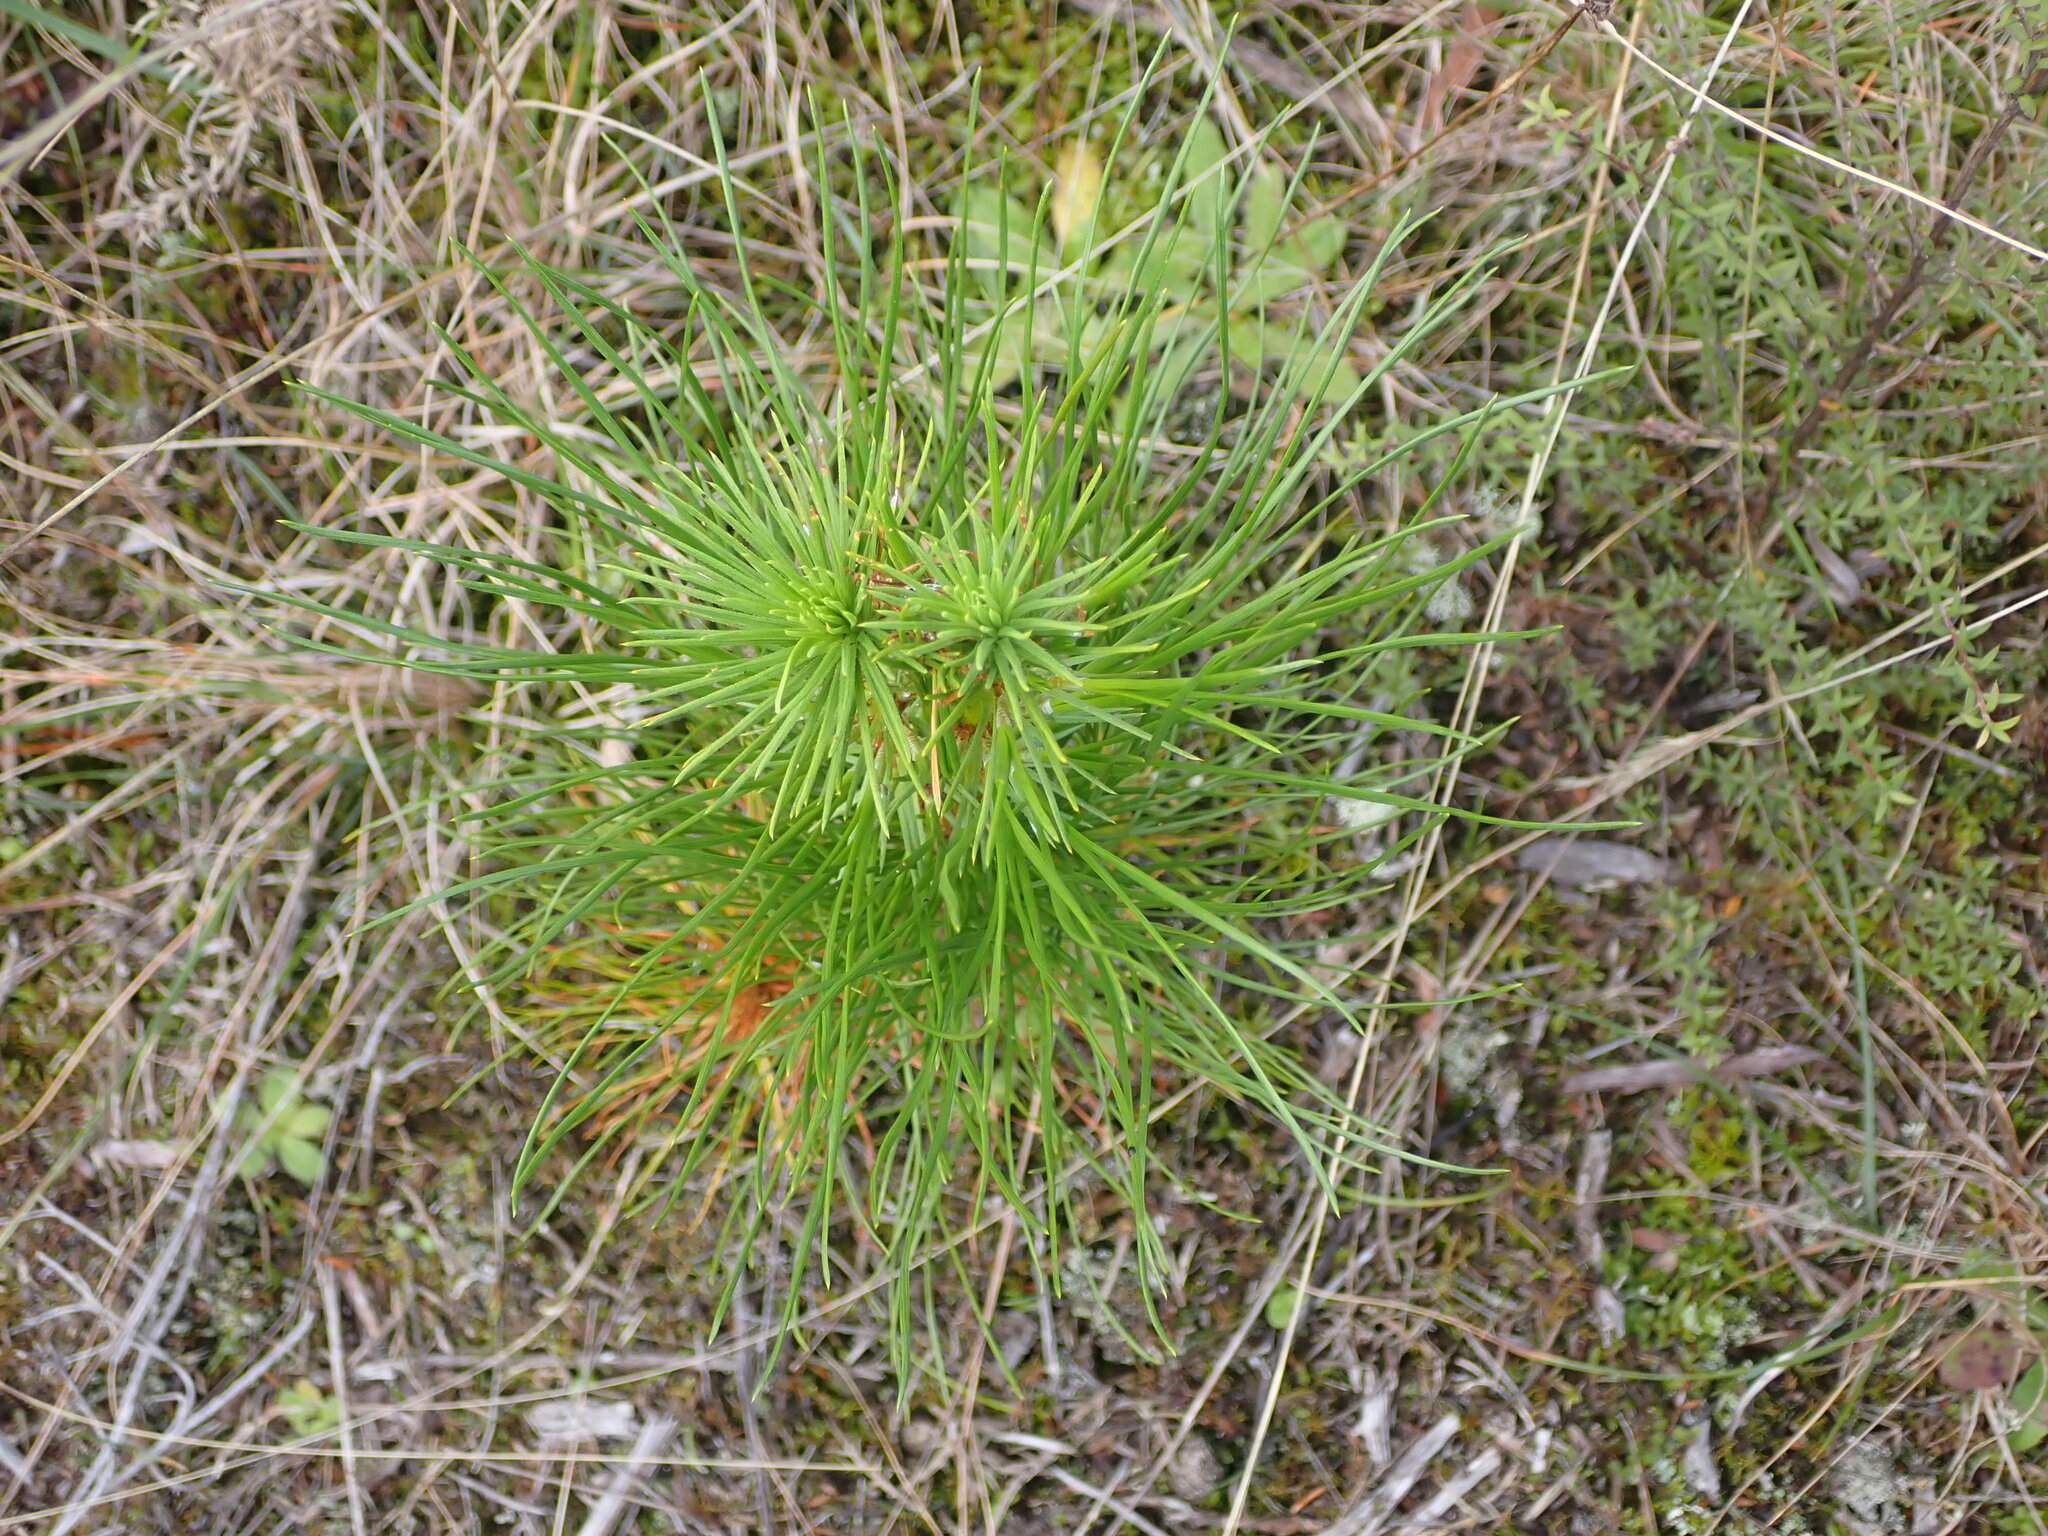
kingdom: Plantae
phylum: Tracheophyta
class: Pinopsida
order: Pinales
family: Pinaceae
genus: Pinus
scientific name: Pinus radiata
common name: Monterey pine
